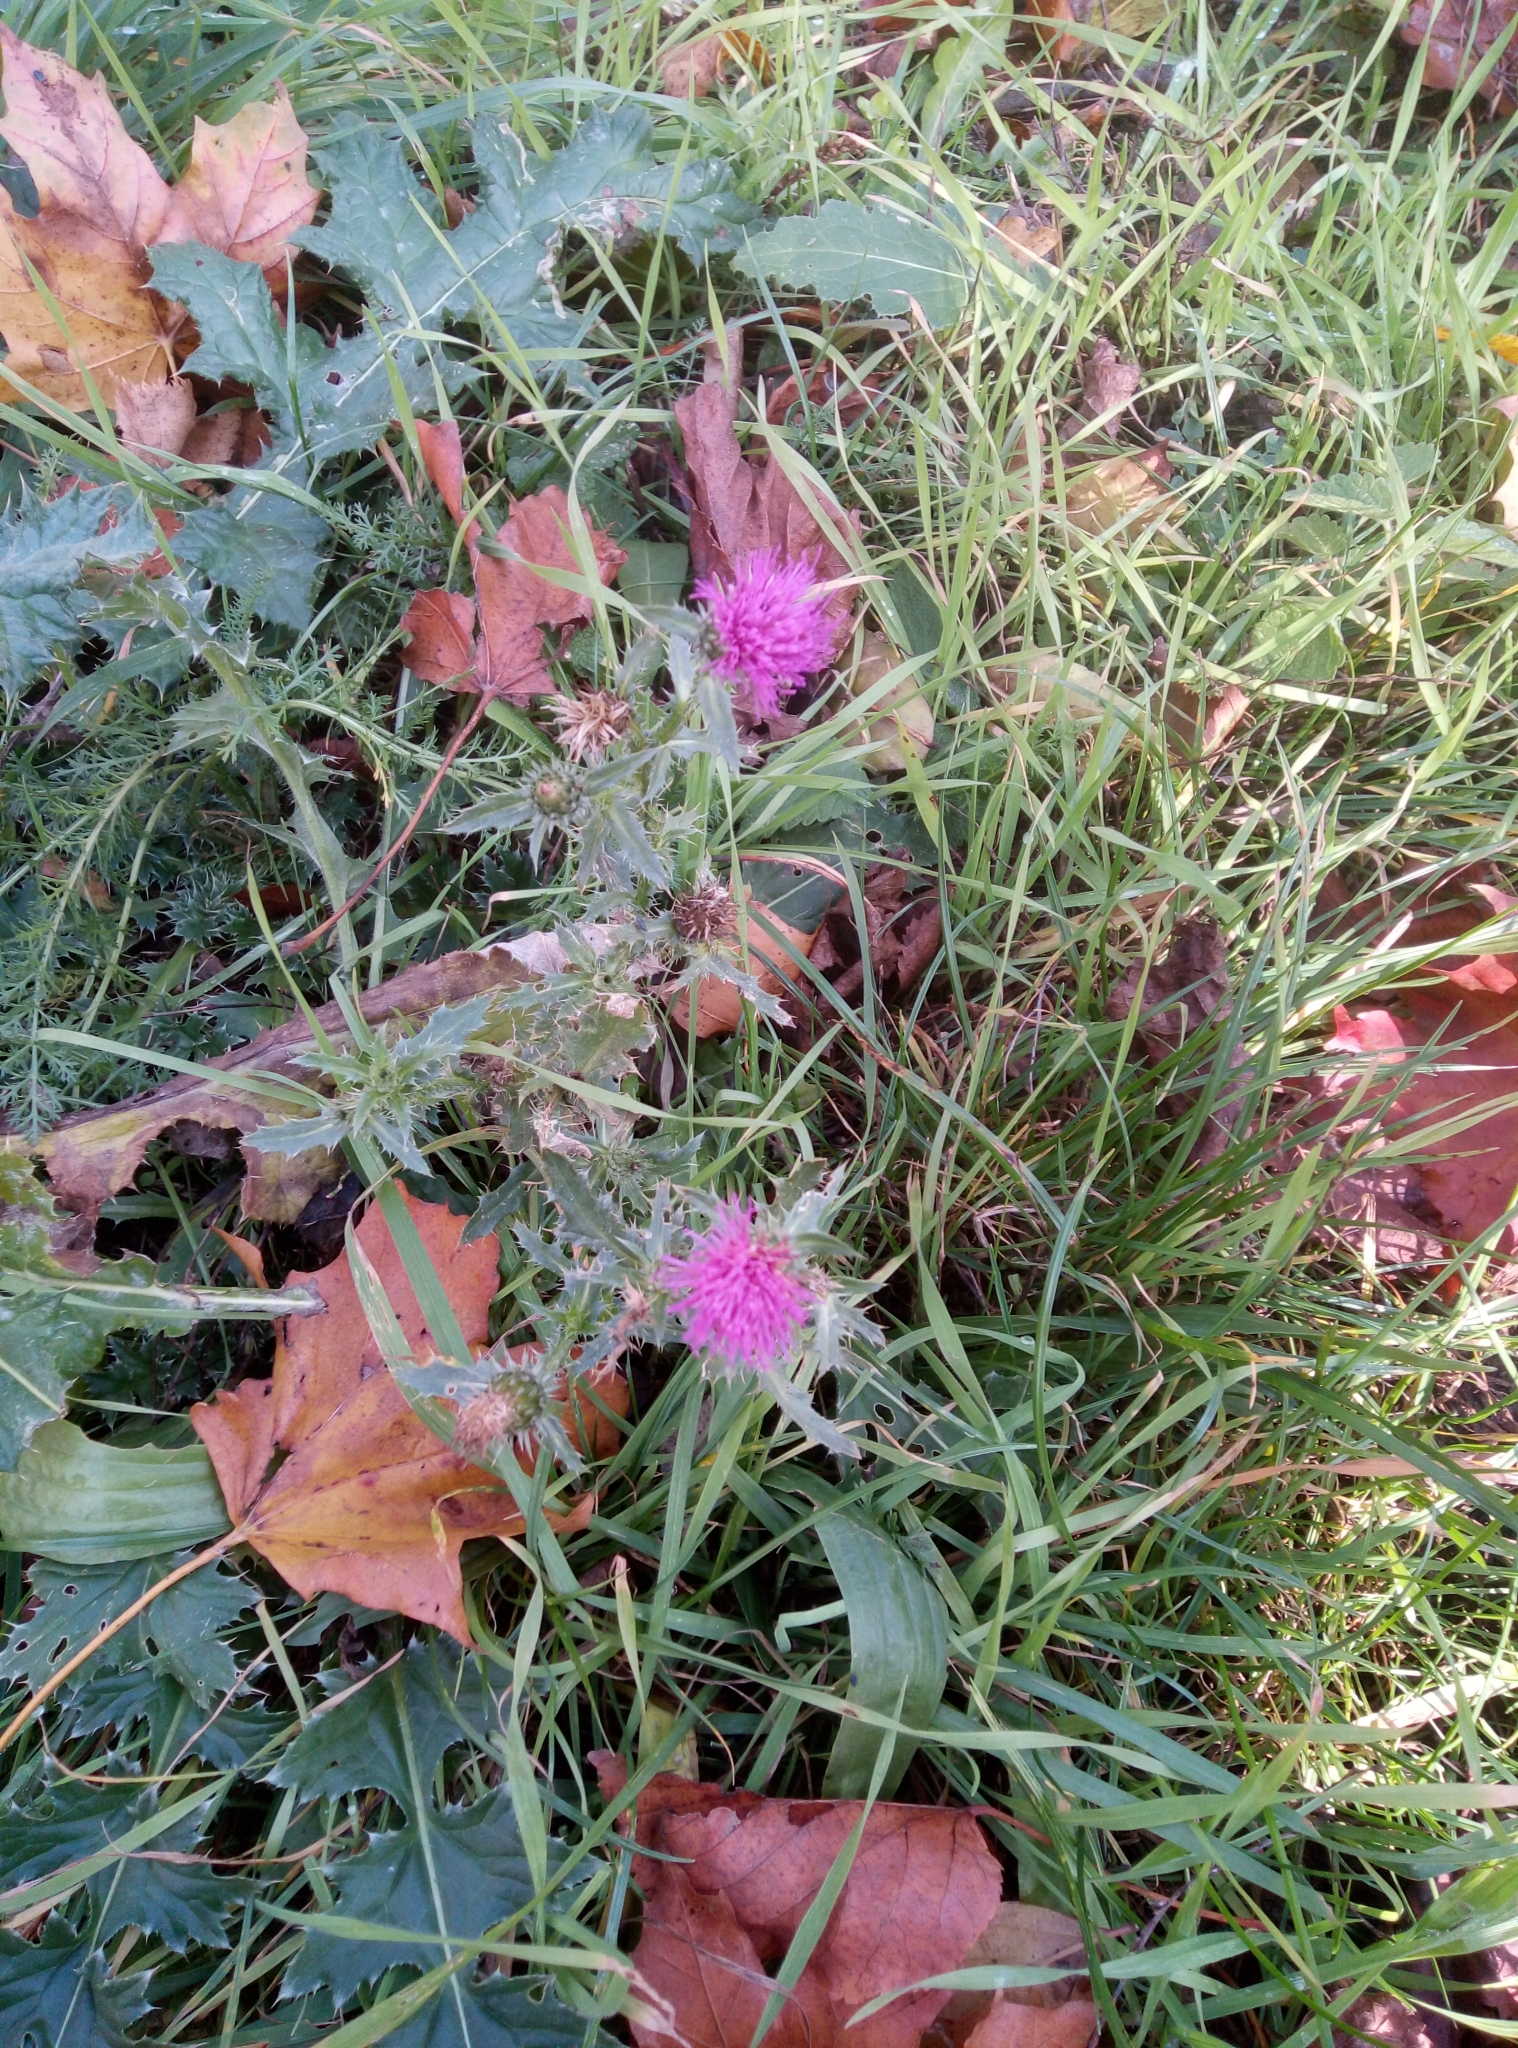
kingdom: Plantae
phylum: Tracheophyta
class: Magnoliopsida
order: Asterales
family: Asteraceae
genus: Carduus
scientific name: Carduus acanthoides
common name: Plumeless thistle
